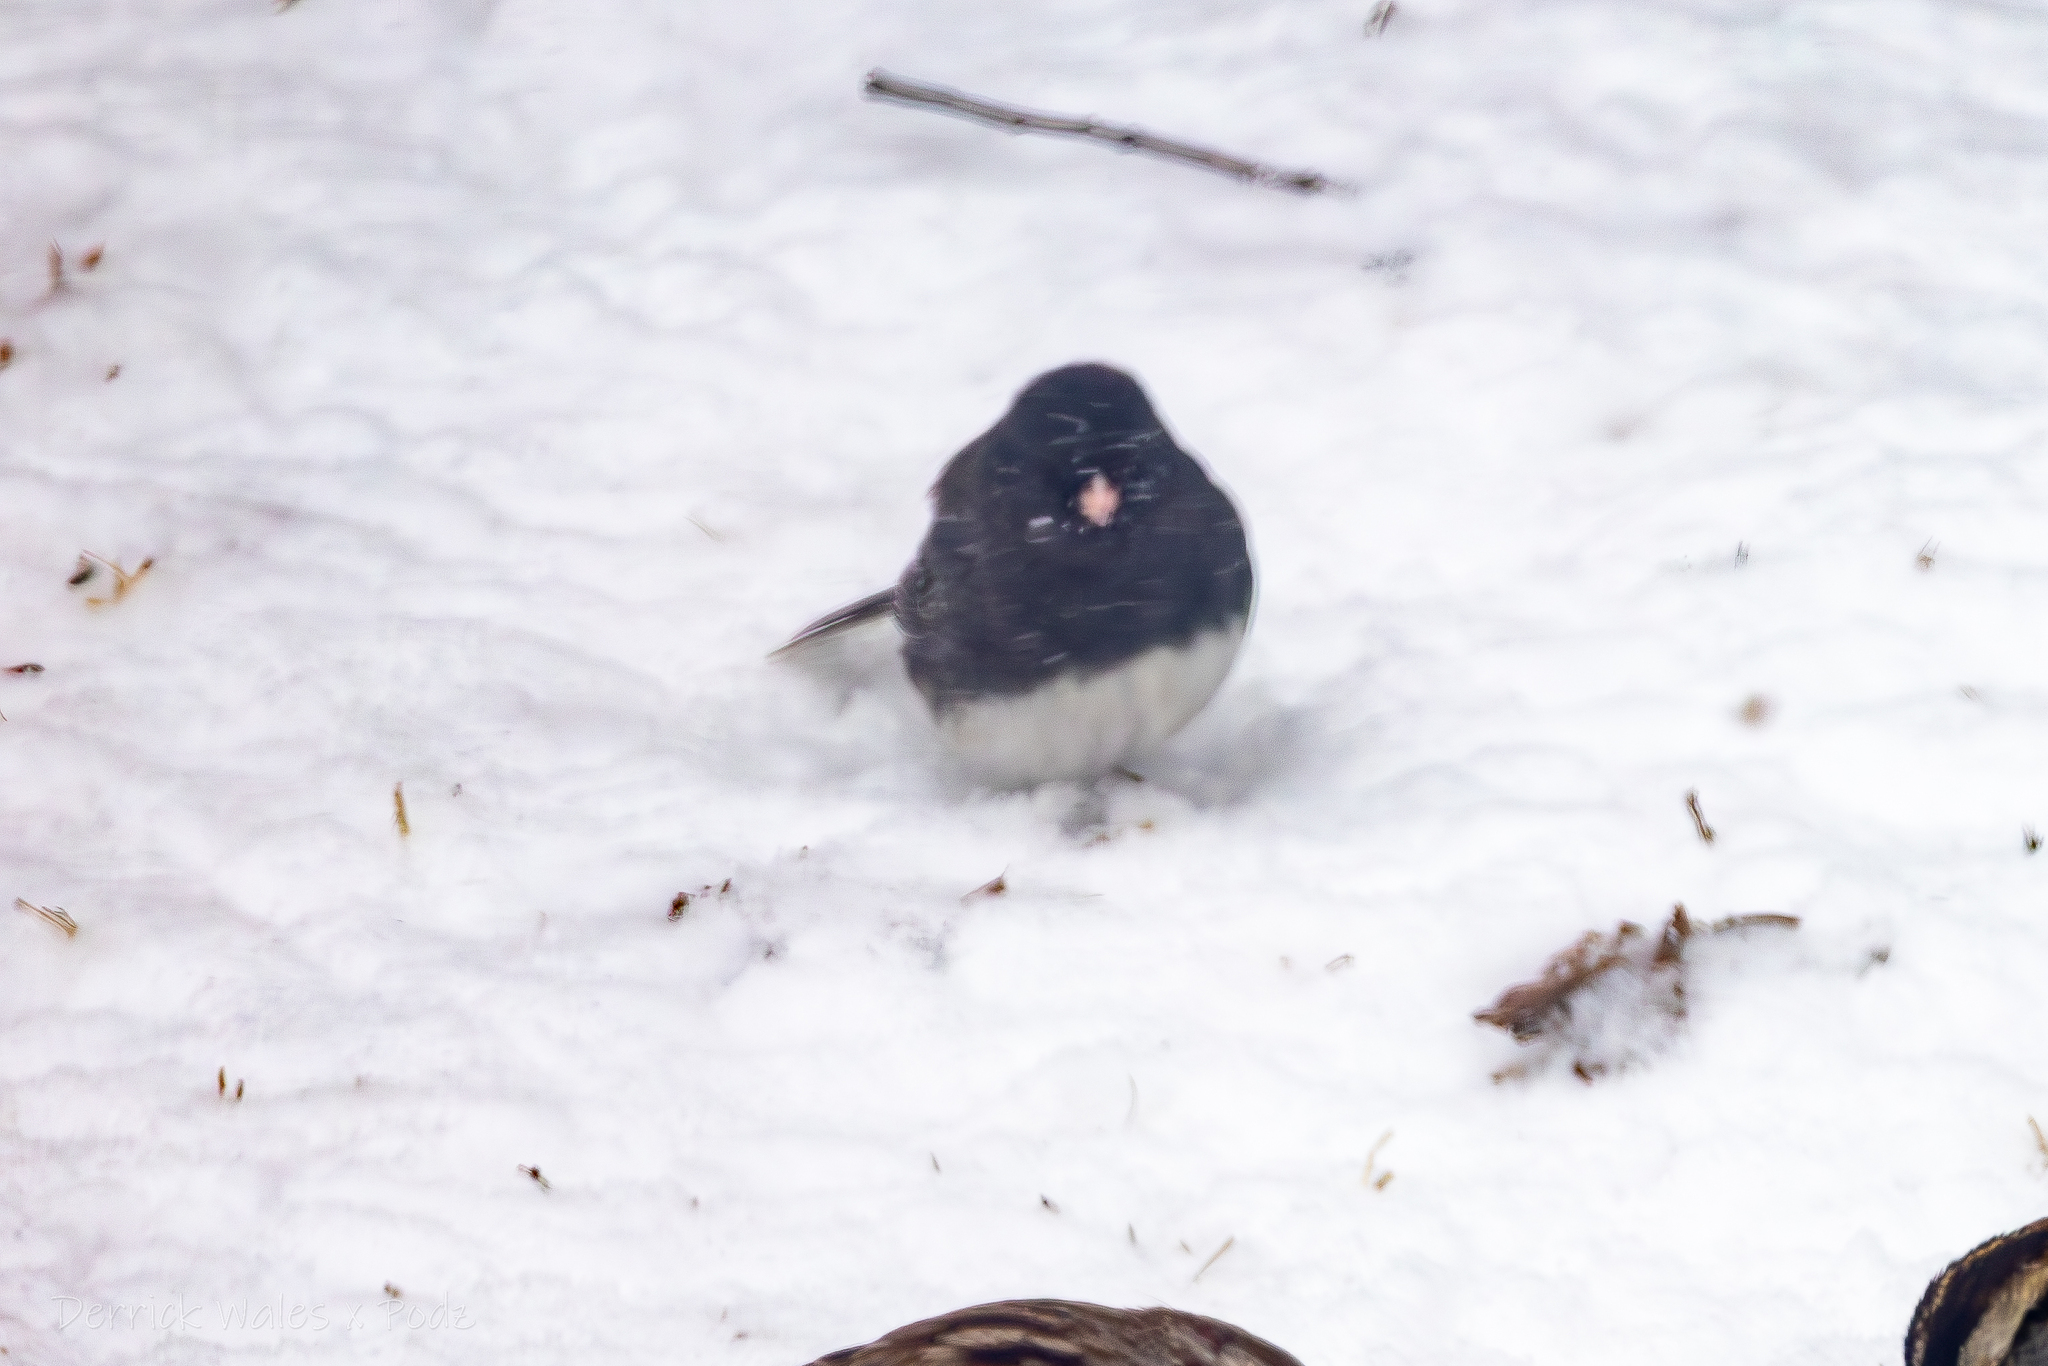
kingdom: Animalia
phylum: Chordata
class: Aves
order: Passeriformes
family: Passerellidae
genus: Junco
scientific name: Junco hyemalis
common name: Dark-eyed junco
